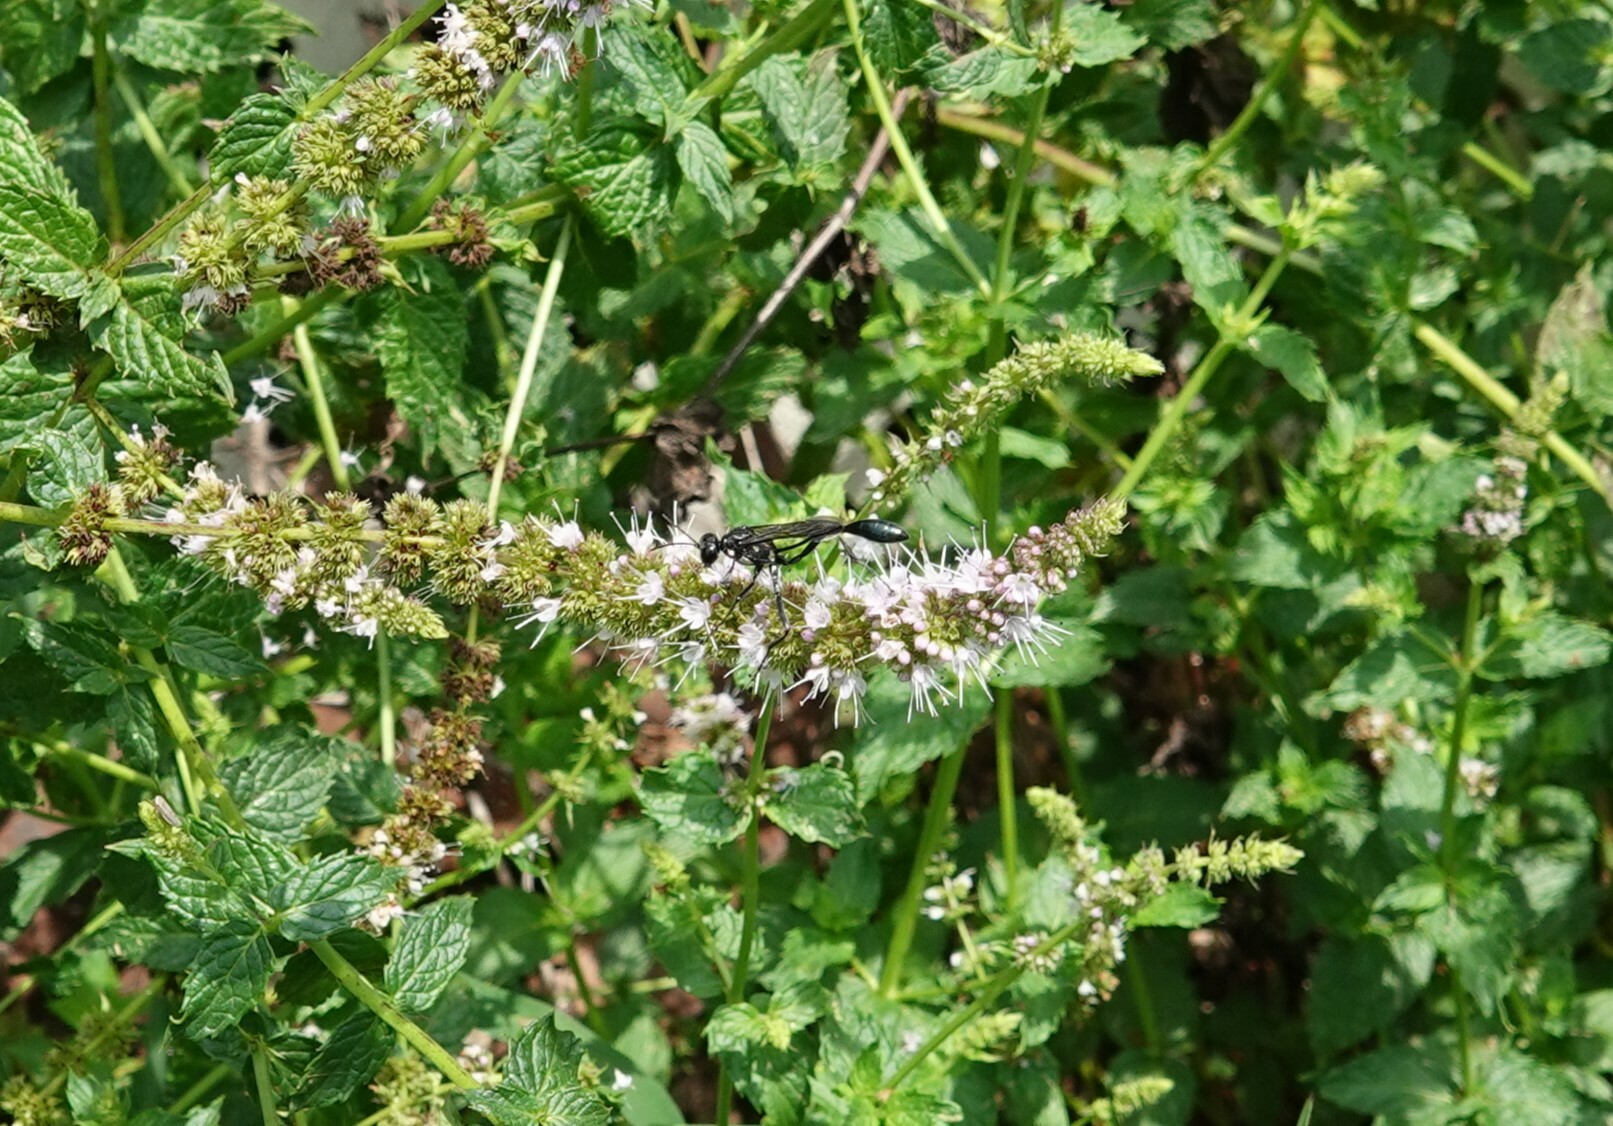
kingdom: Animalia
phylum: Arthropoda
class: Insecta
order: Hymenoptera
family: Sphecidae
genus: Eremnophila
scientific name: Eremnophila aureonotata
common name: Gold-marked thread-waisted wasp
